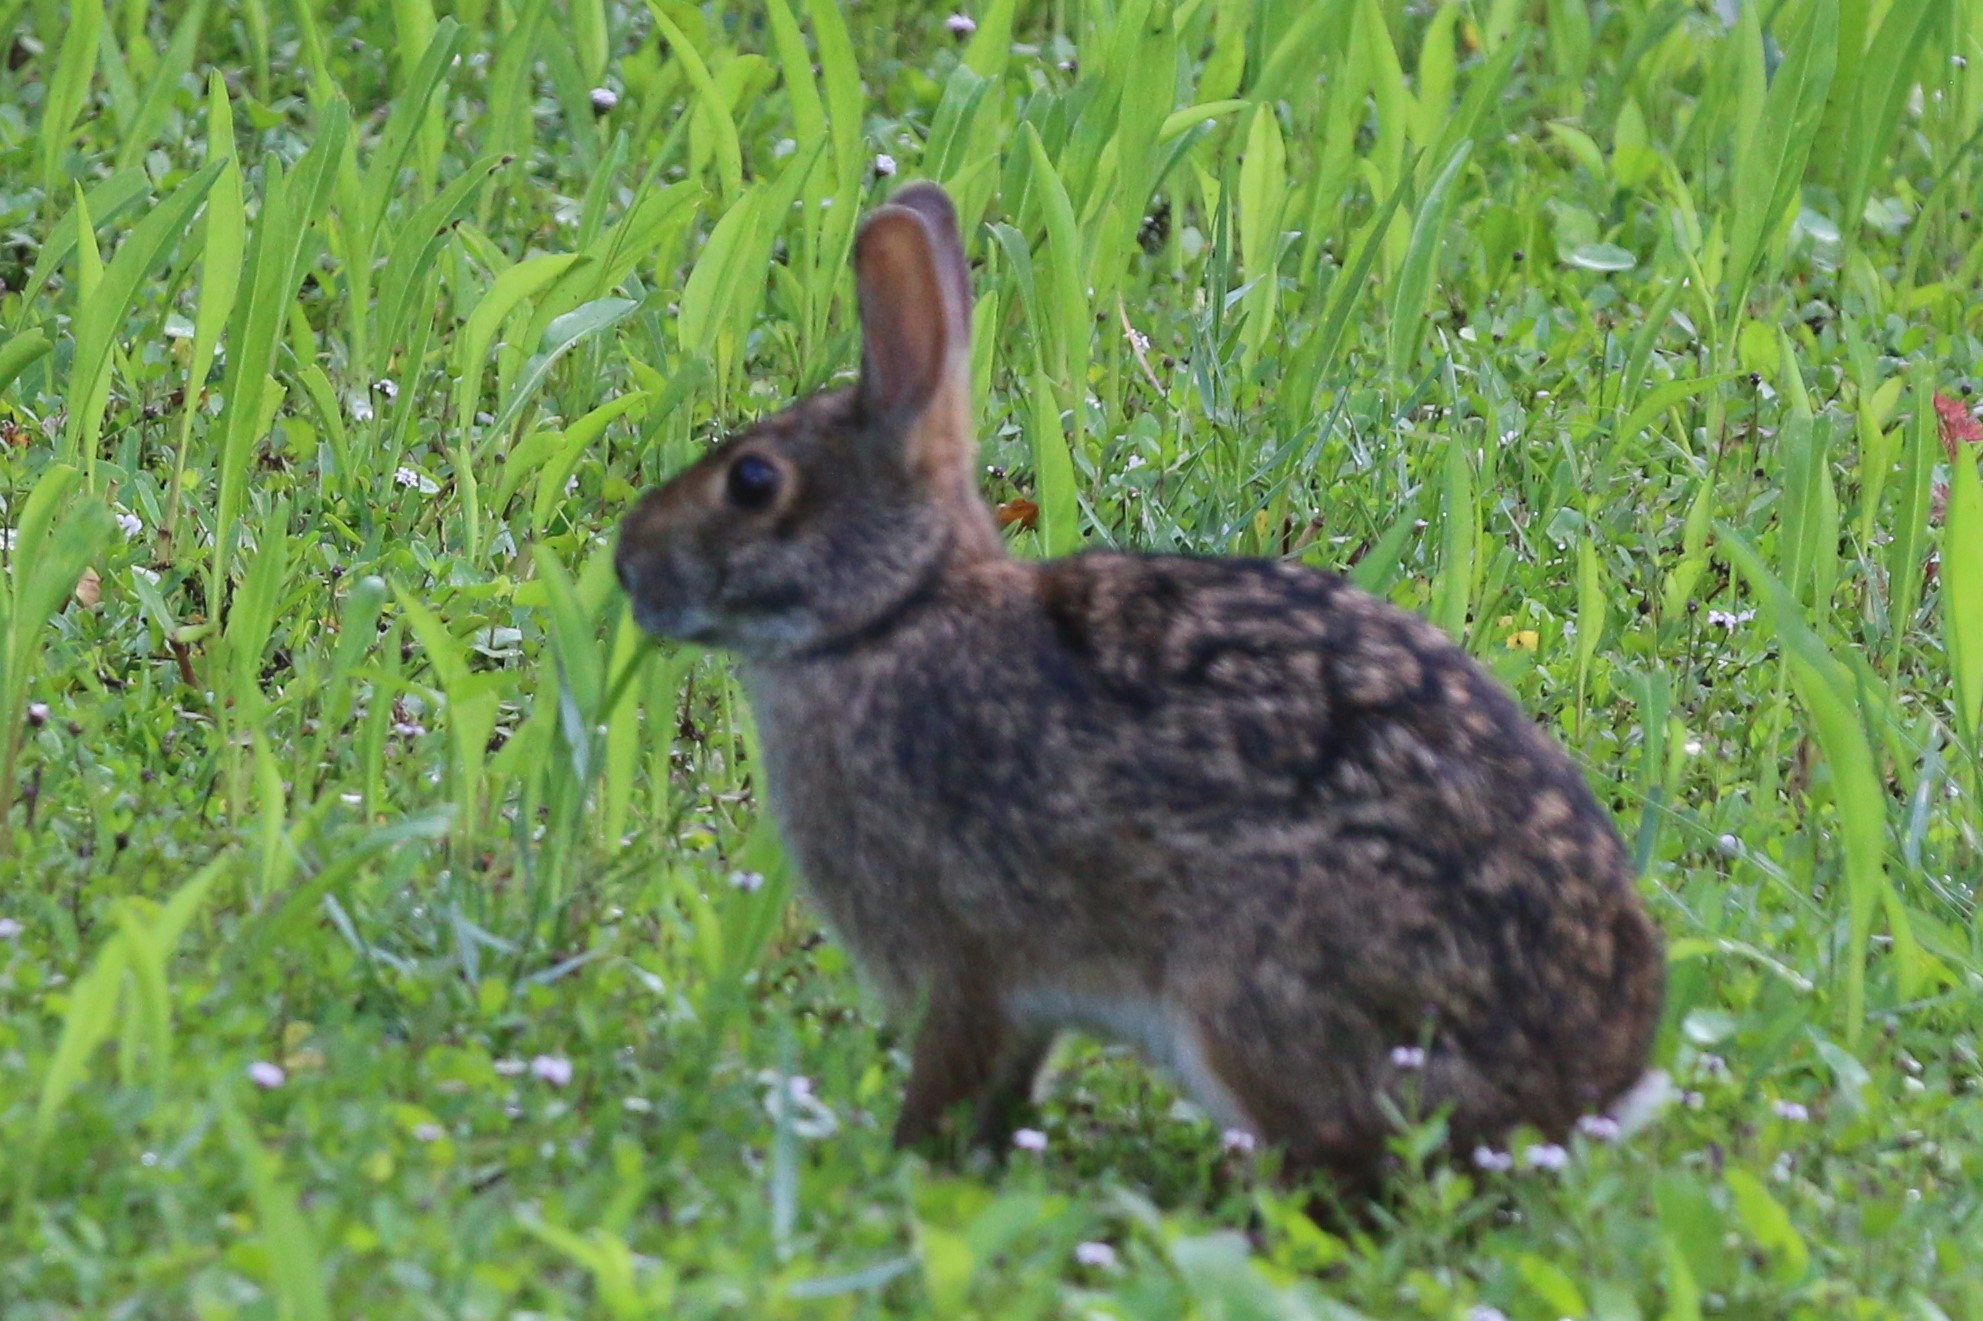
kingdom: Animalia
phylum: Chordata
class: Mammalia
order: Lagomorpha
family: Leporidae
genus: Sylvilagus
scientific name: Sylvilagus aquaticus
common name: Swamp rabbit
